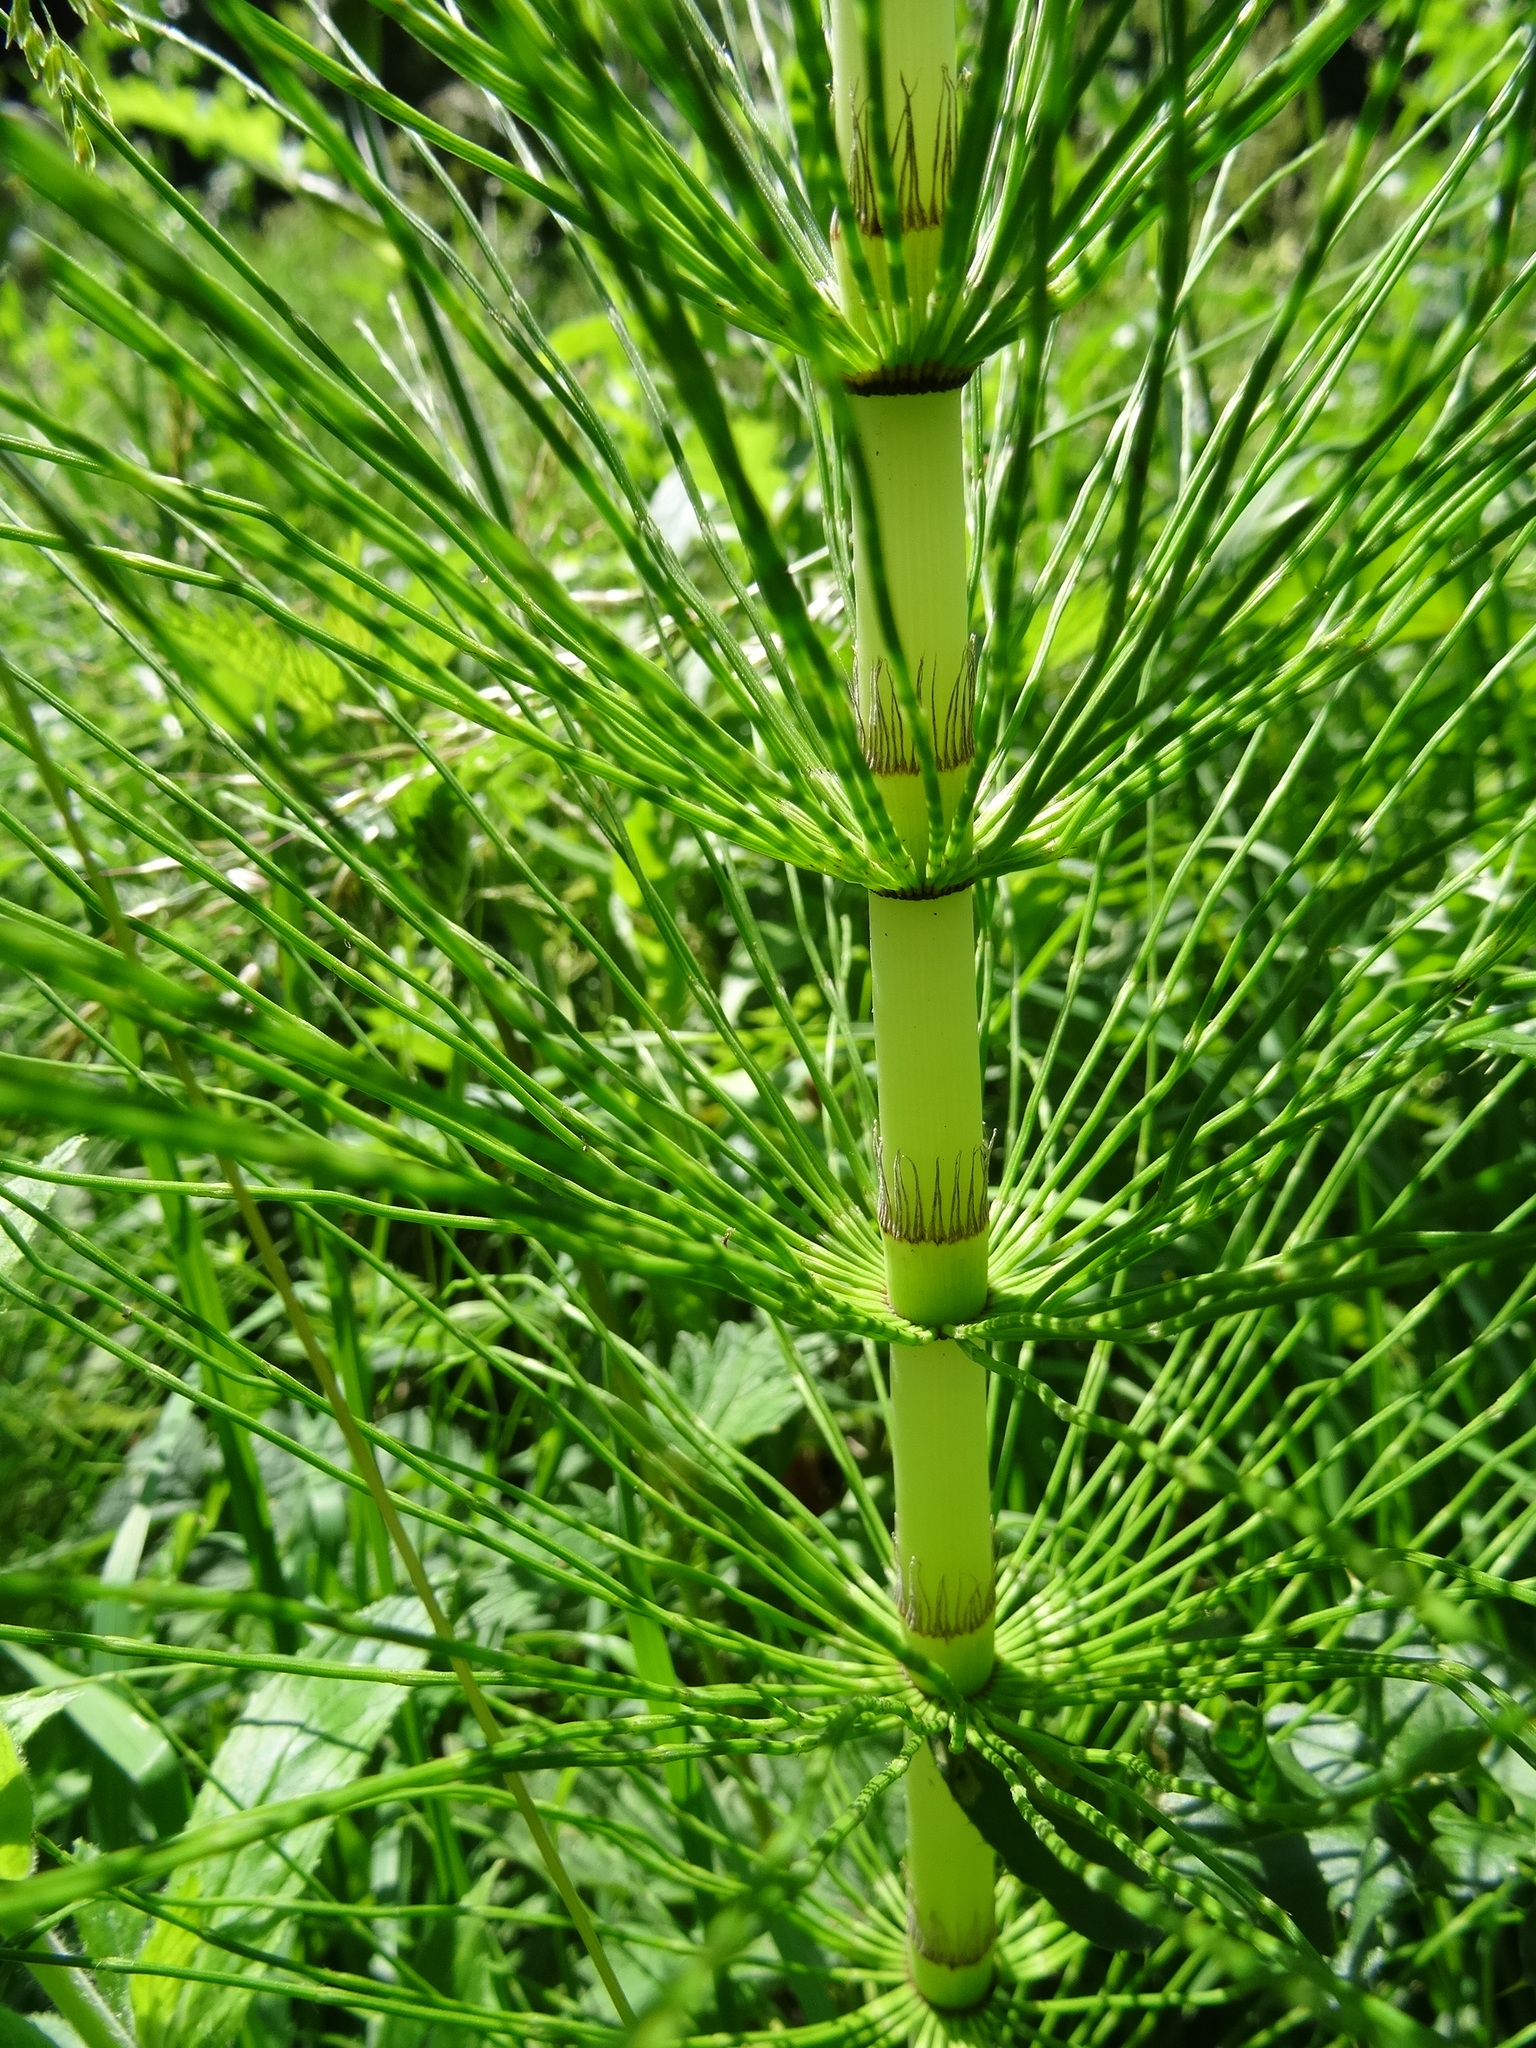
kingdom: Plantae
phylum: Tracheophyta
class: Polypodiopsida
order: Equisetales
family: Equisetaceae
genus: Equisetum
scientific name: Equisetum telmateia
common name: Great horsetail
